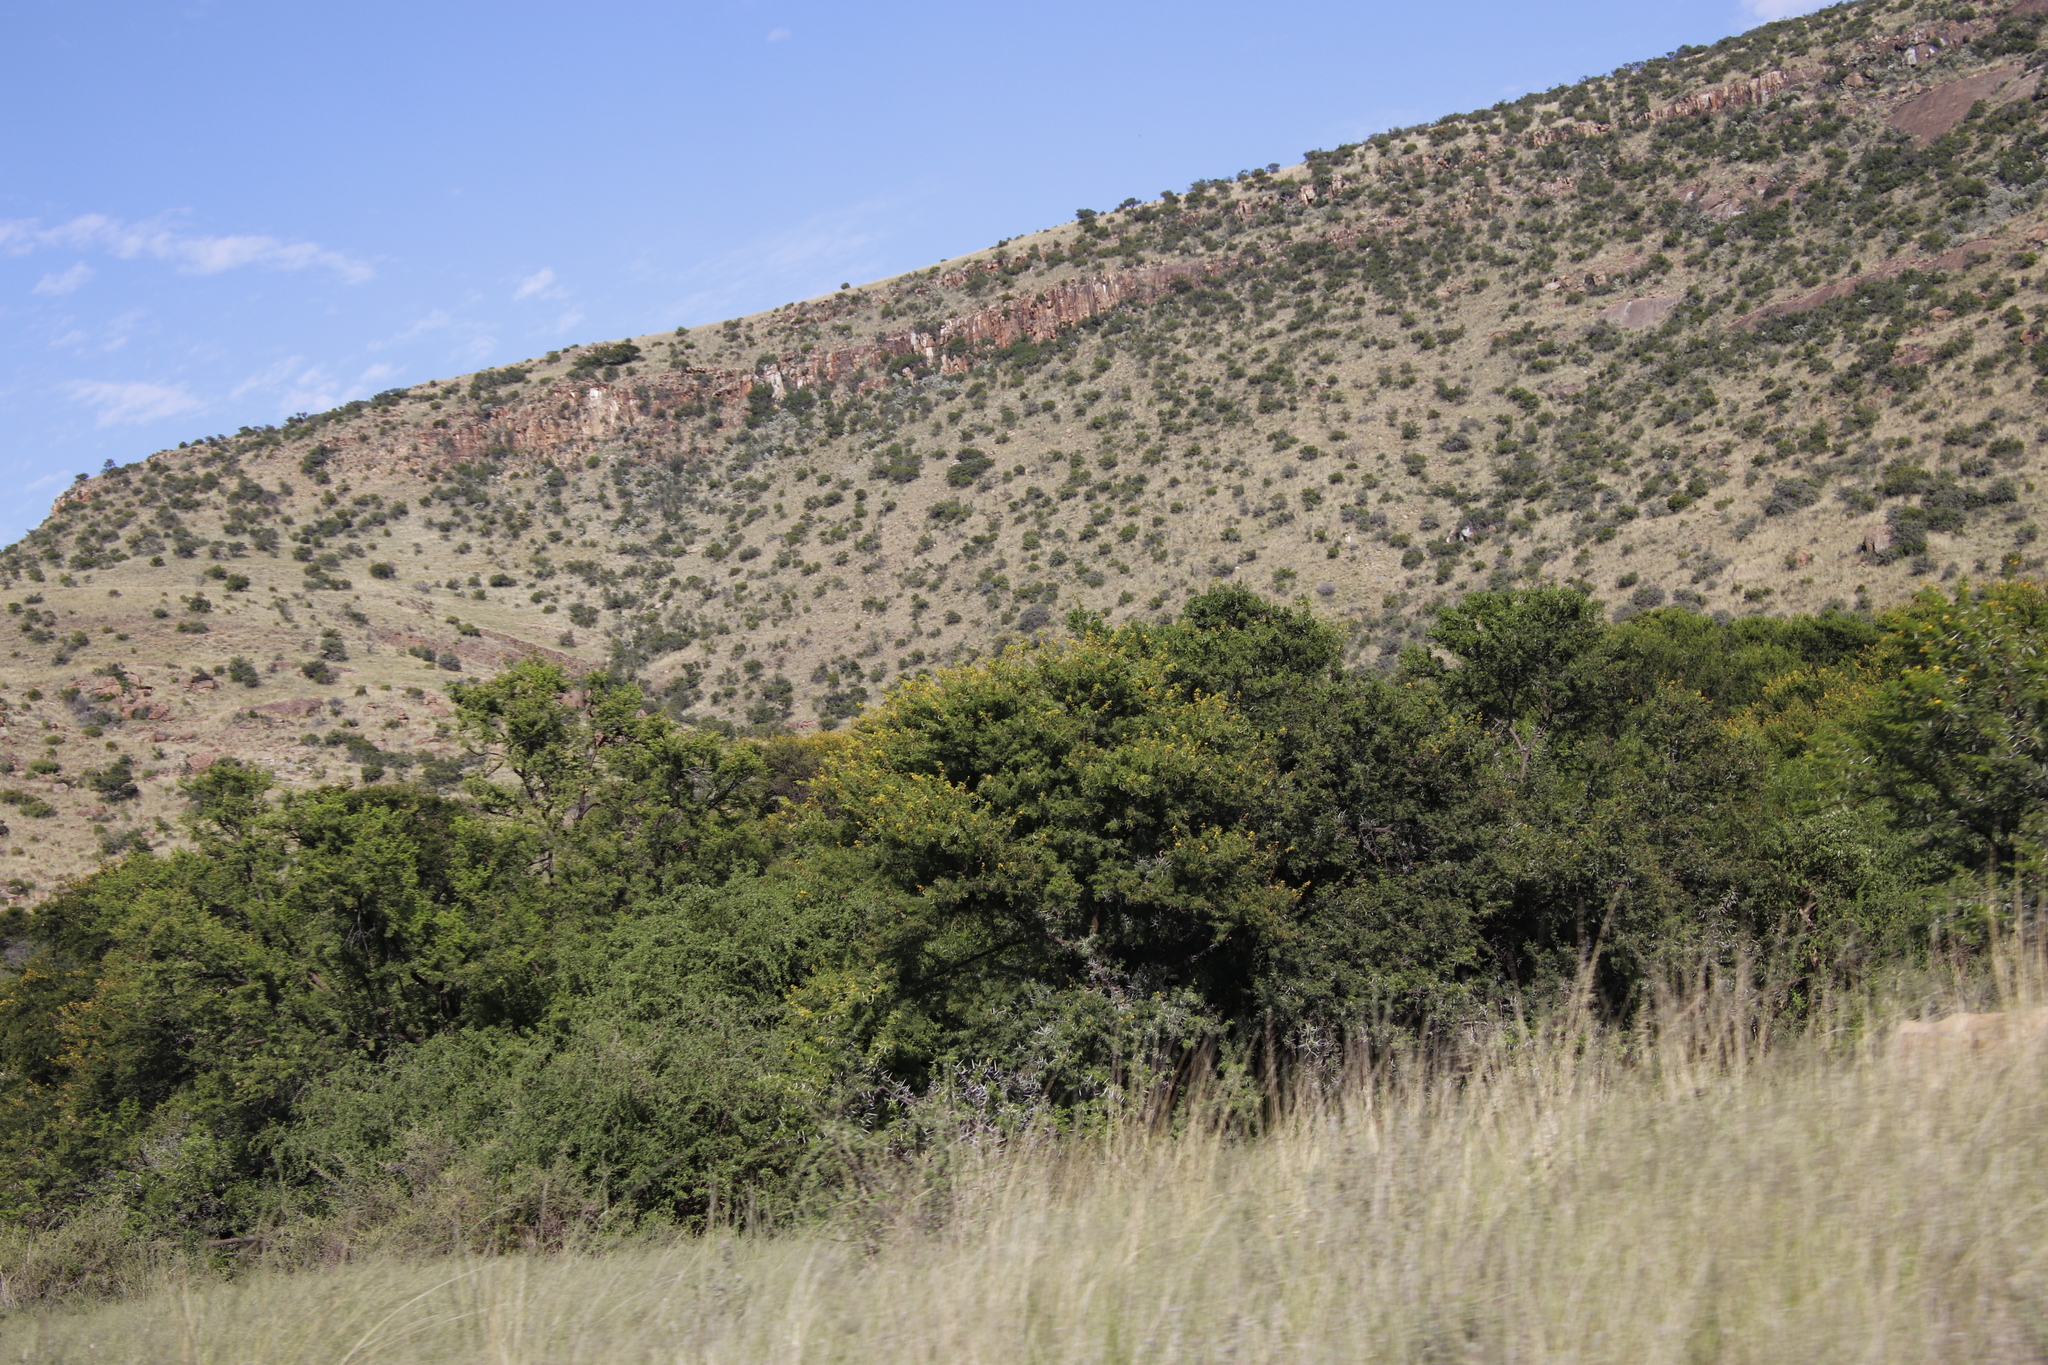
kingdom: Plantae
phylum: Tracheophyta
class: Magnoliopsida
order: Fabales
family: Fabaceae
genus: Vachellia
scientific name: Vachellia karroo
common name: Sweet thorn
